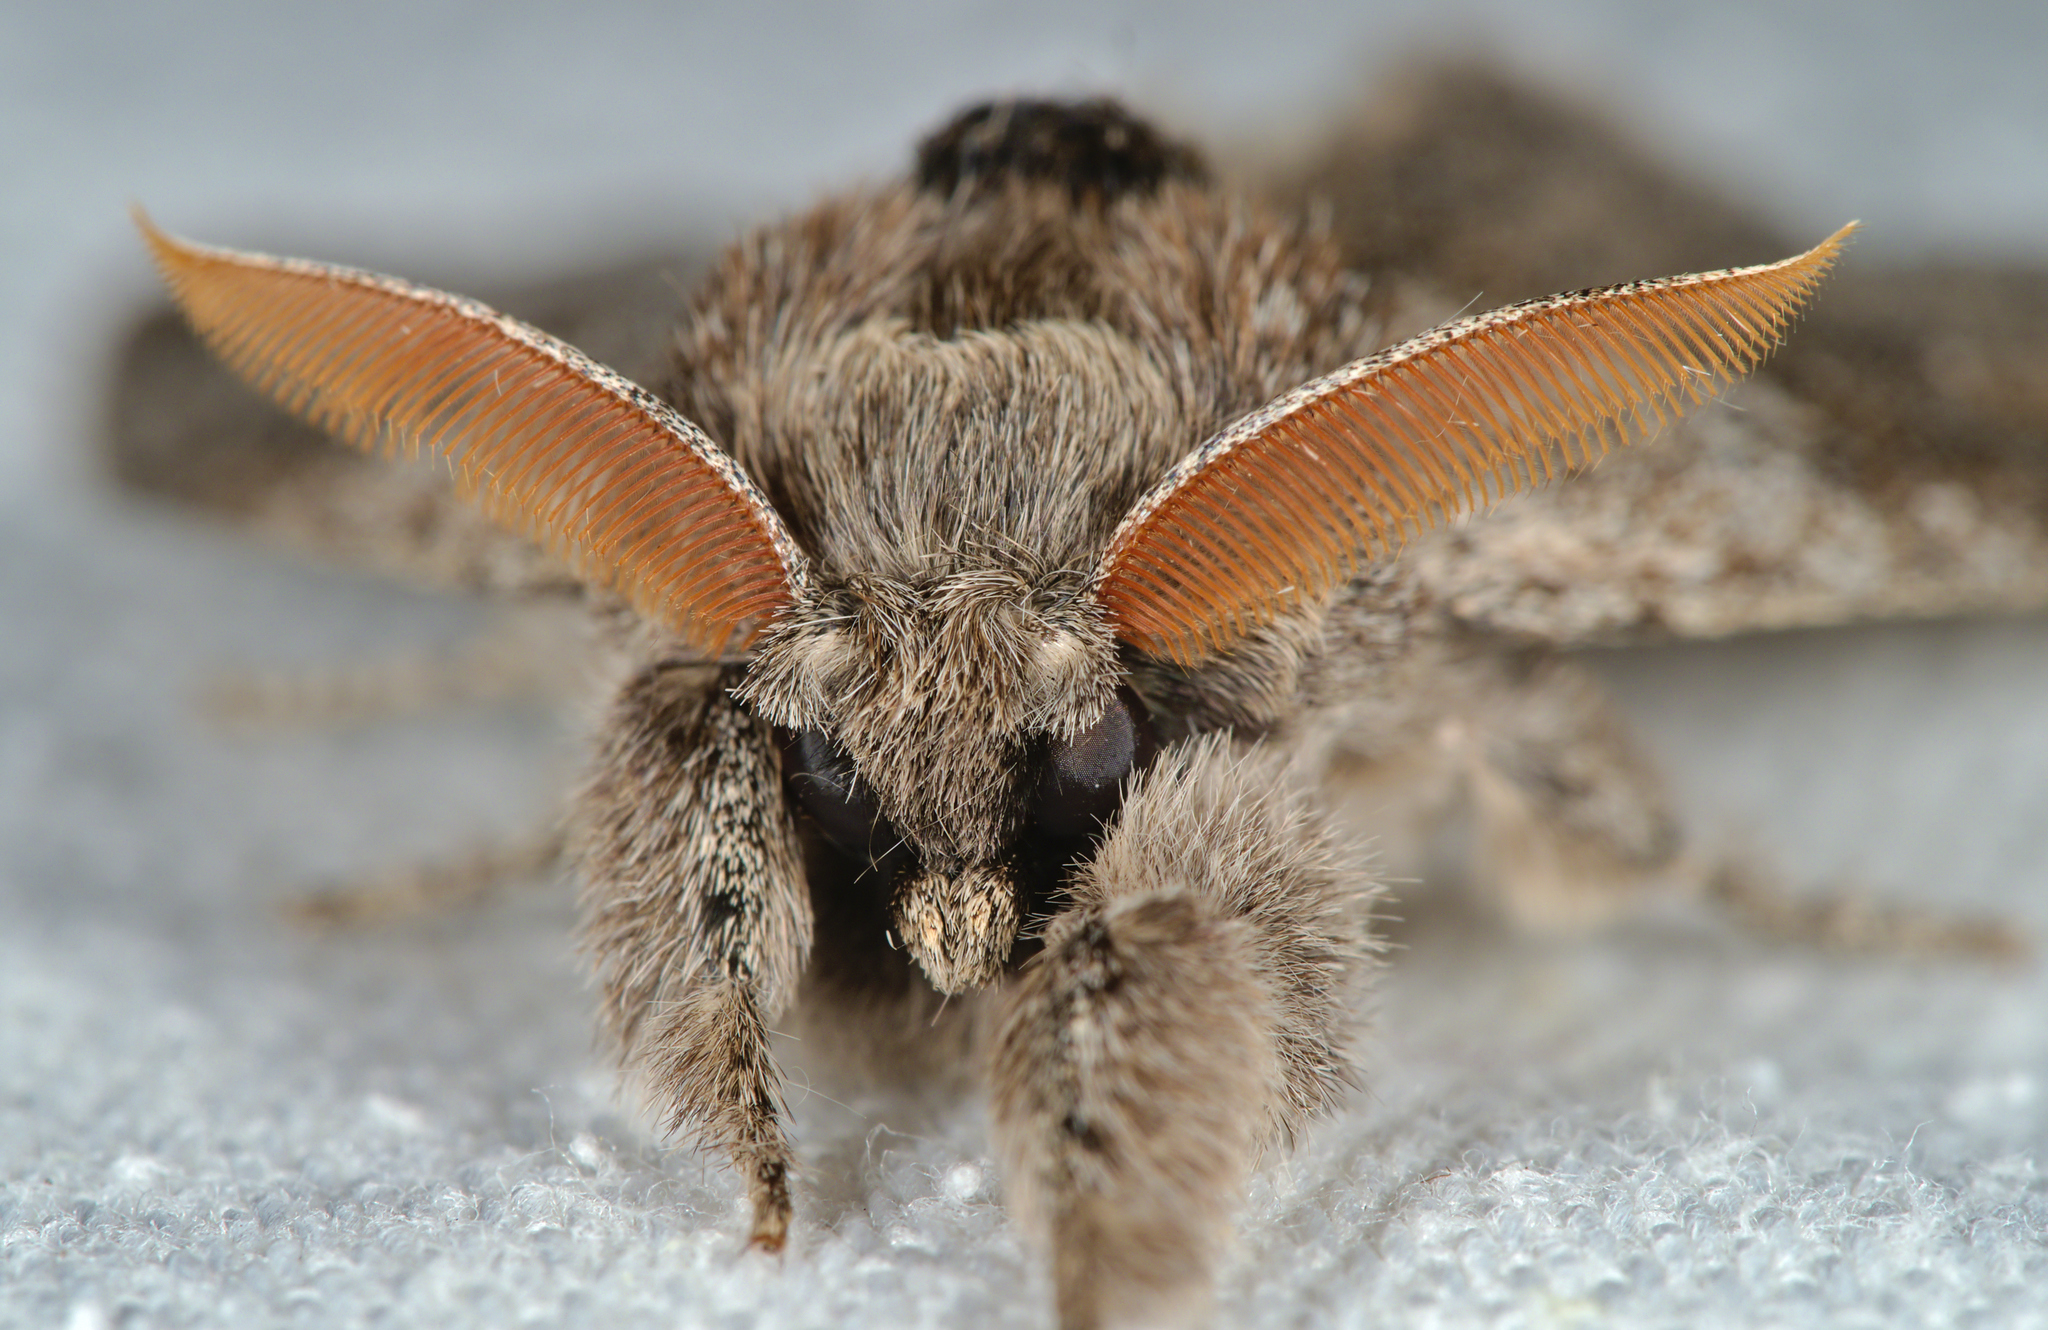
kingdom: Animalia
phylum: Arthropoda
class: Insecta
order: Lepidoptera
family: Erebidae
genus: Calliteara
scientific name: Calliteara pudibunda
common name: Pale tussock
